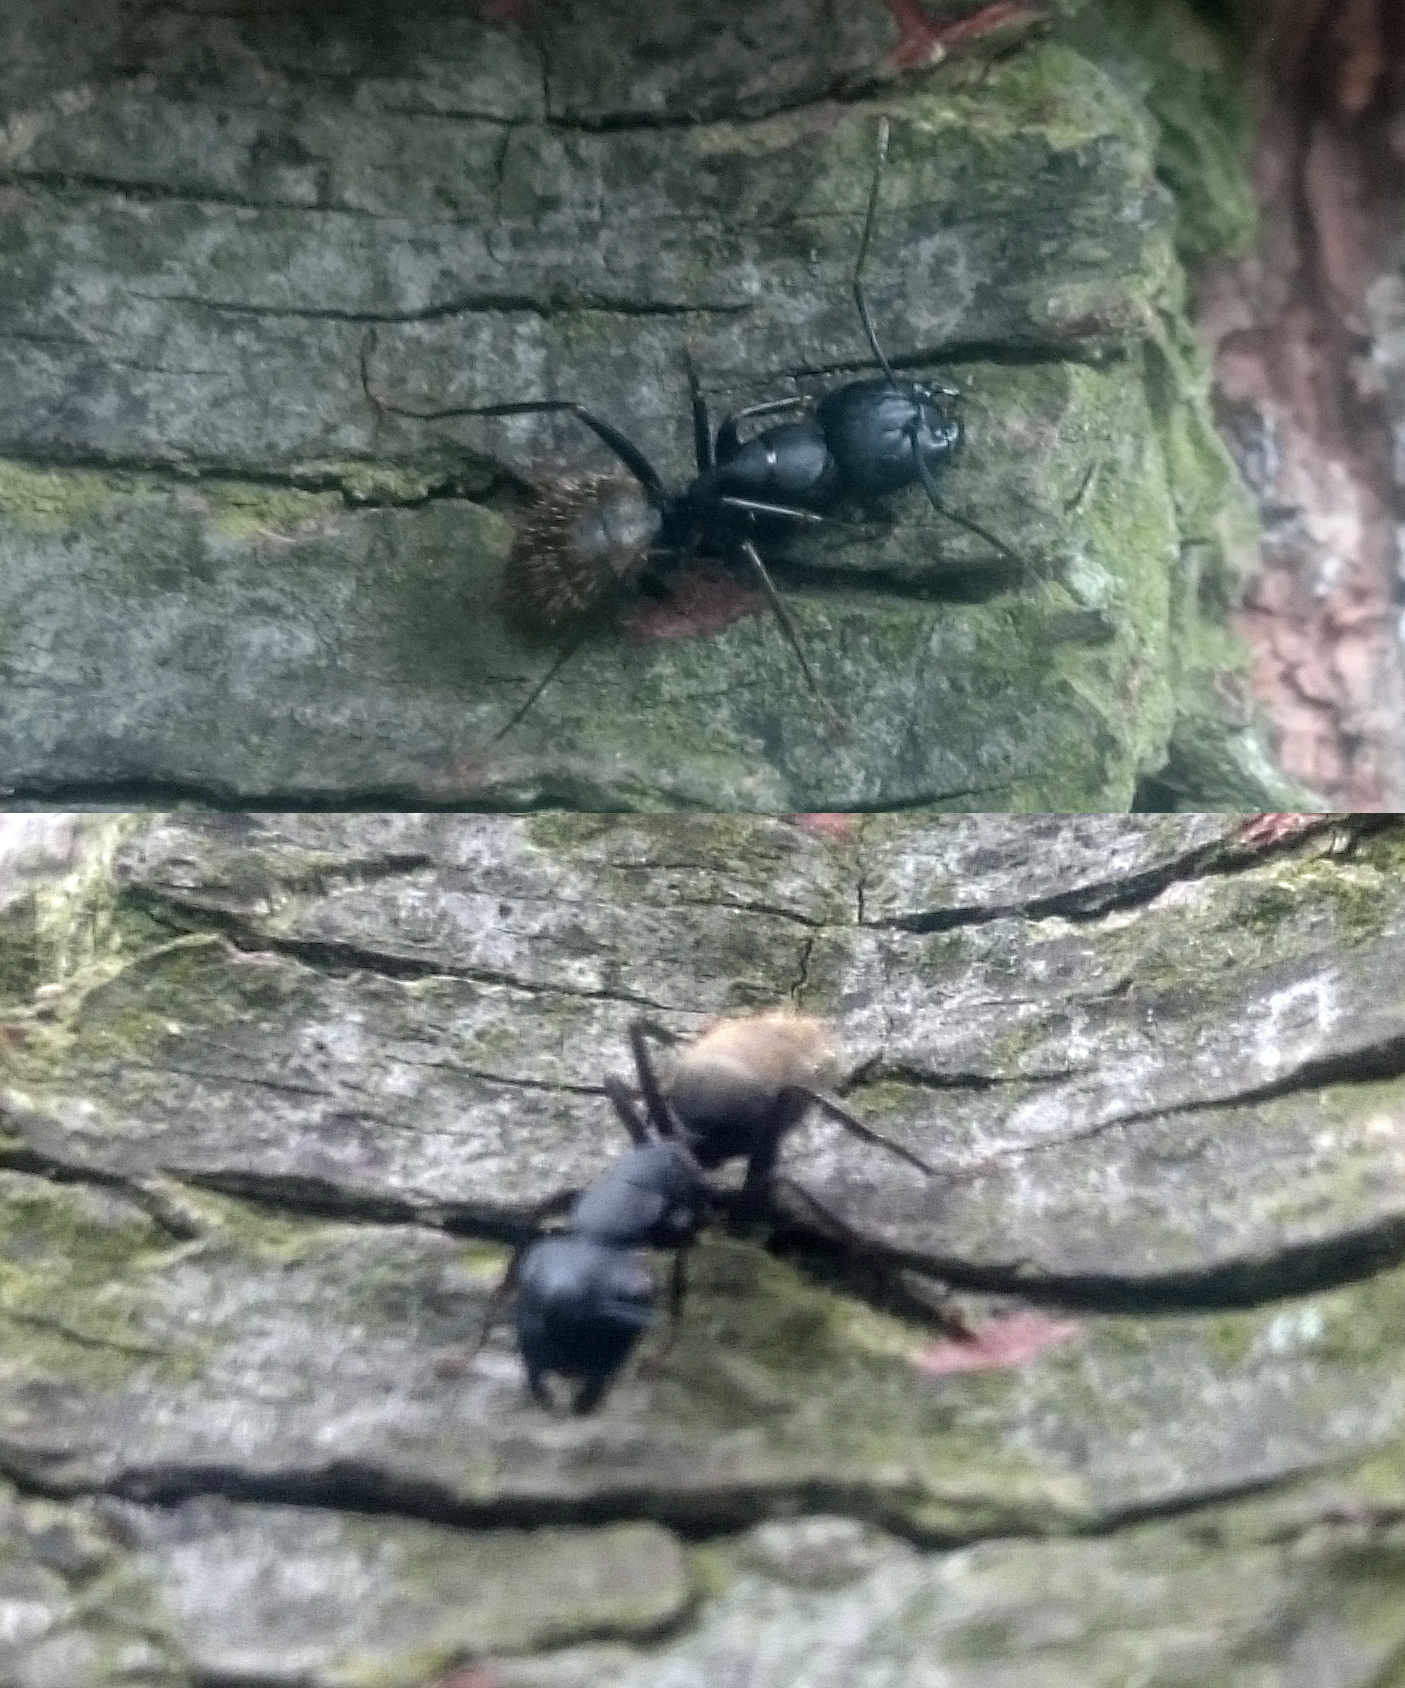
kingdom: Animalia
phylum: Arthropoda
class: Insecta
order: Hymenoptera
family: Formicidae
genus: Camponotus
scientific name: Camponotus pennsylvanicus
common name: Black carpenter ant
